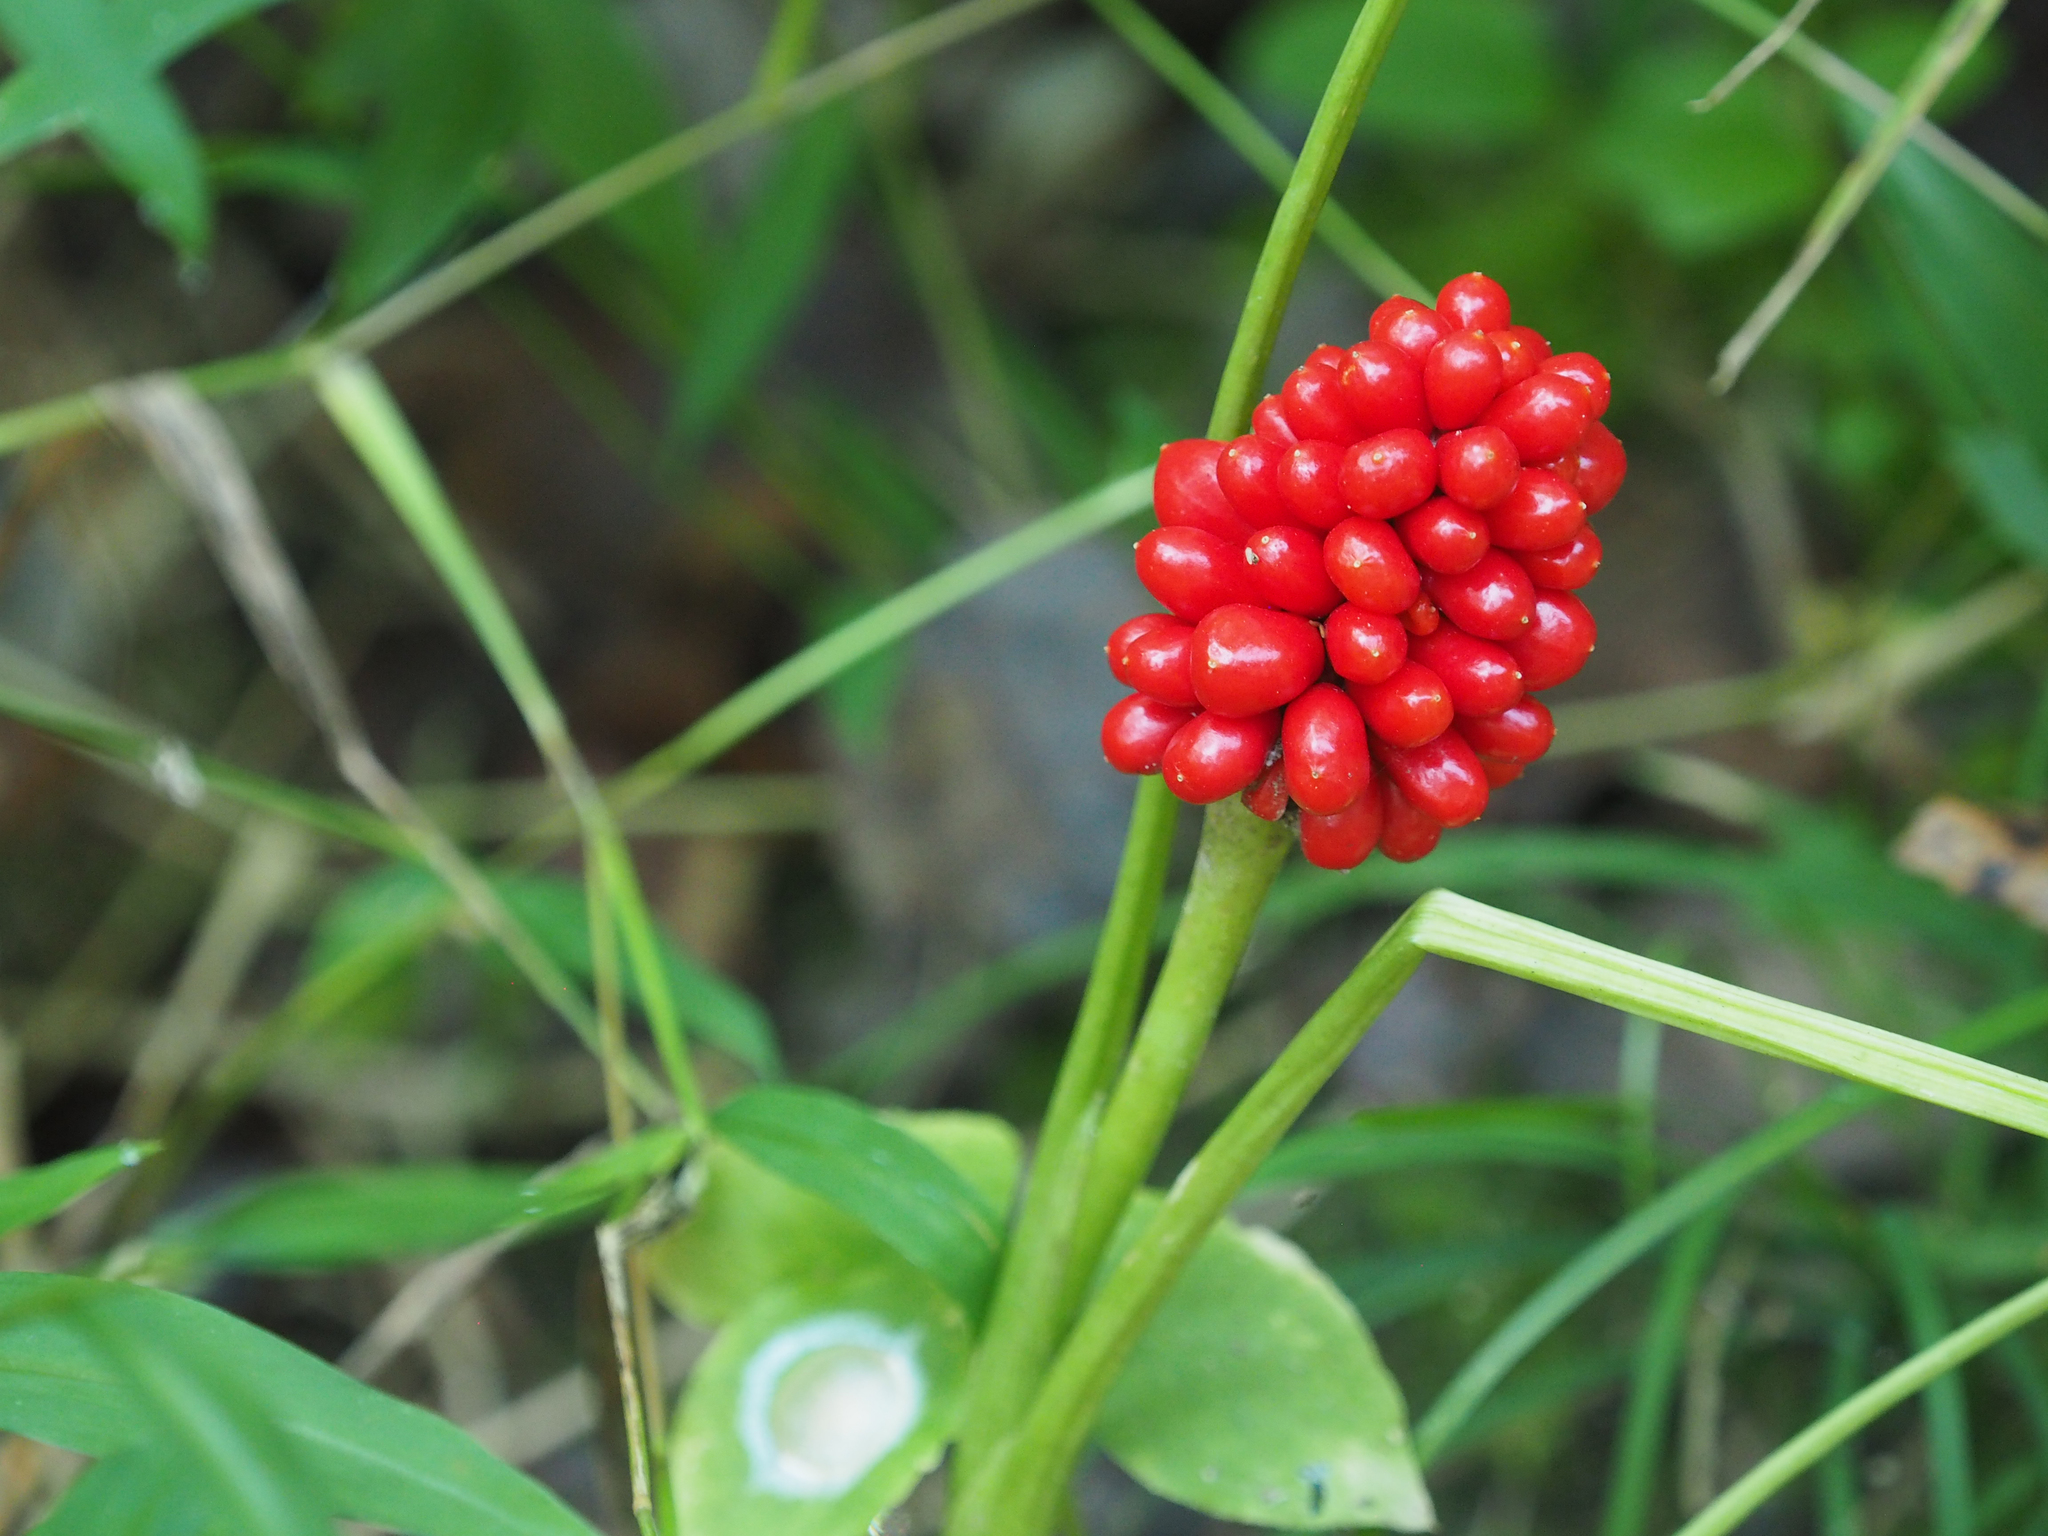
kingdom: Plantae
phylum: Tracheophyta
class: Liliopsida
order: Alismatales
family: Araceae
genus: Arisaema
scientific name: Arisaema dracontium
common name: Dragon-arum
